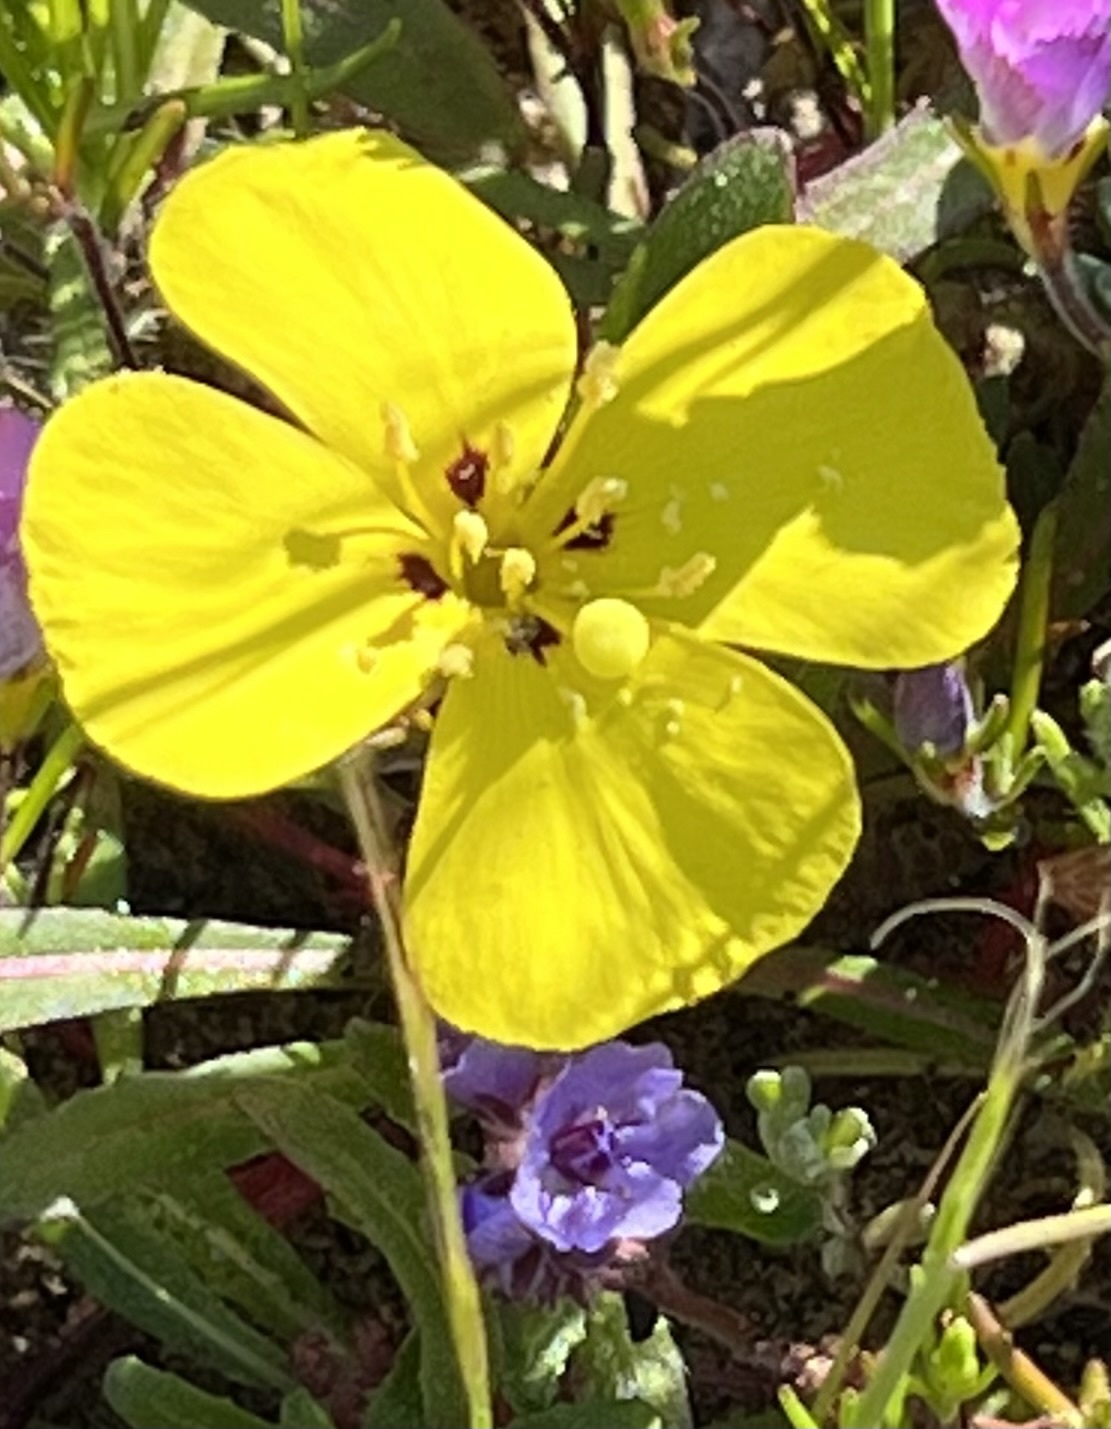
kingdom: Plantae
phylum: Tracheophyta
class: Magnoliopsida
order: Myrtales
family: Onagraceae
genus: Camissoniopsis
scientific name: Camissoniopsis bistorta
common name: Southern suncup
